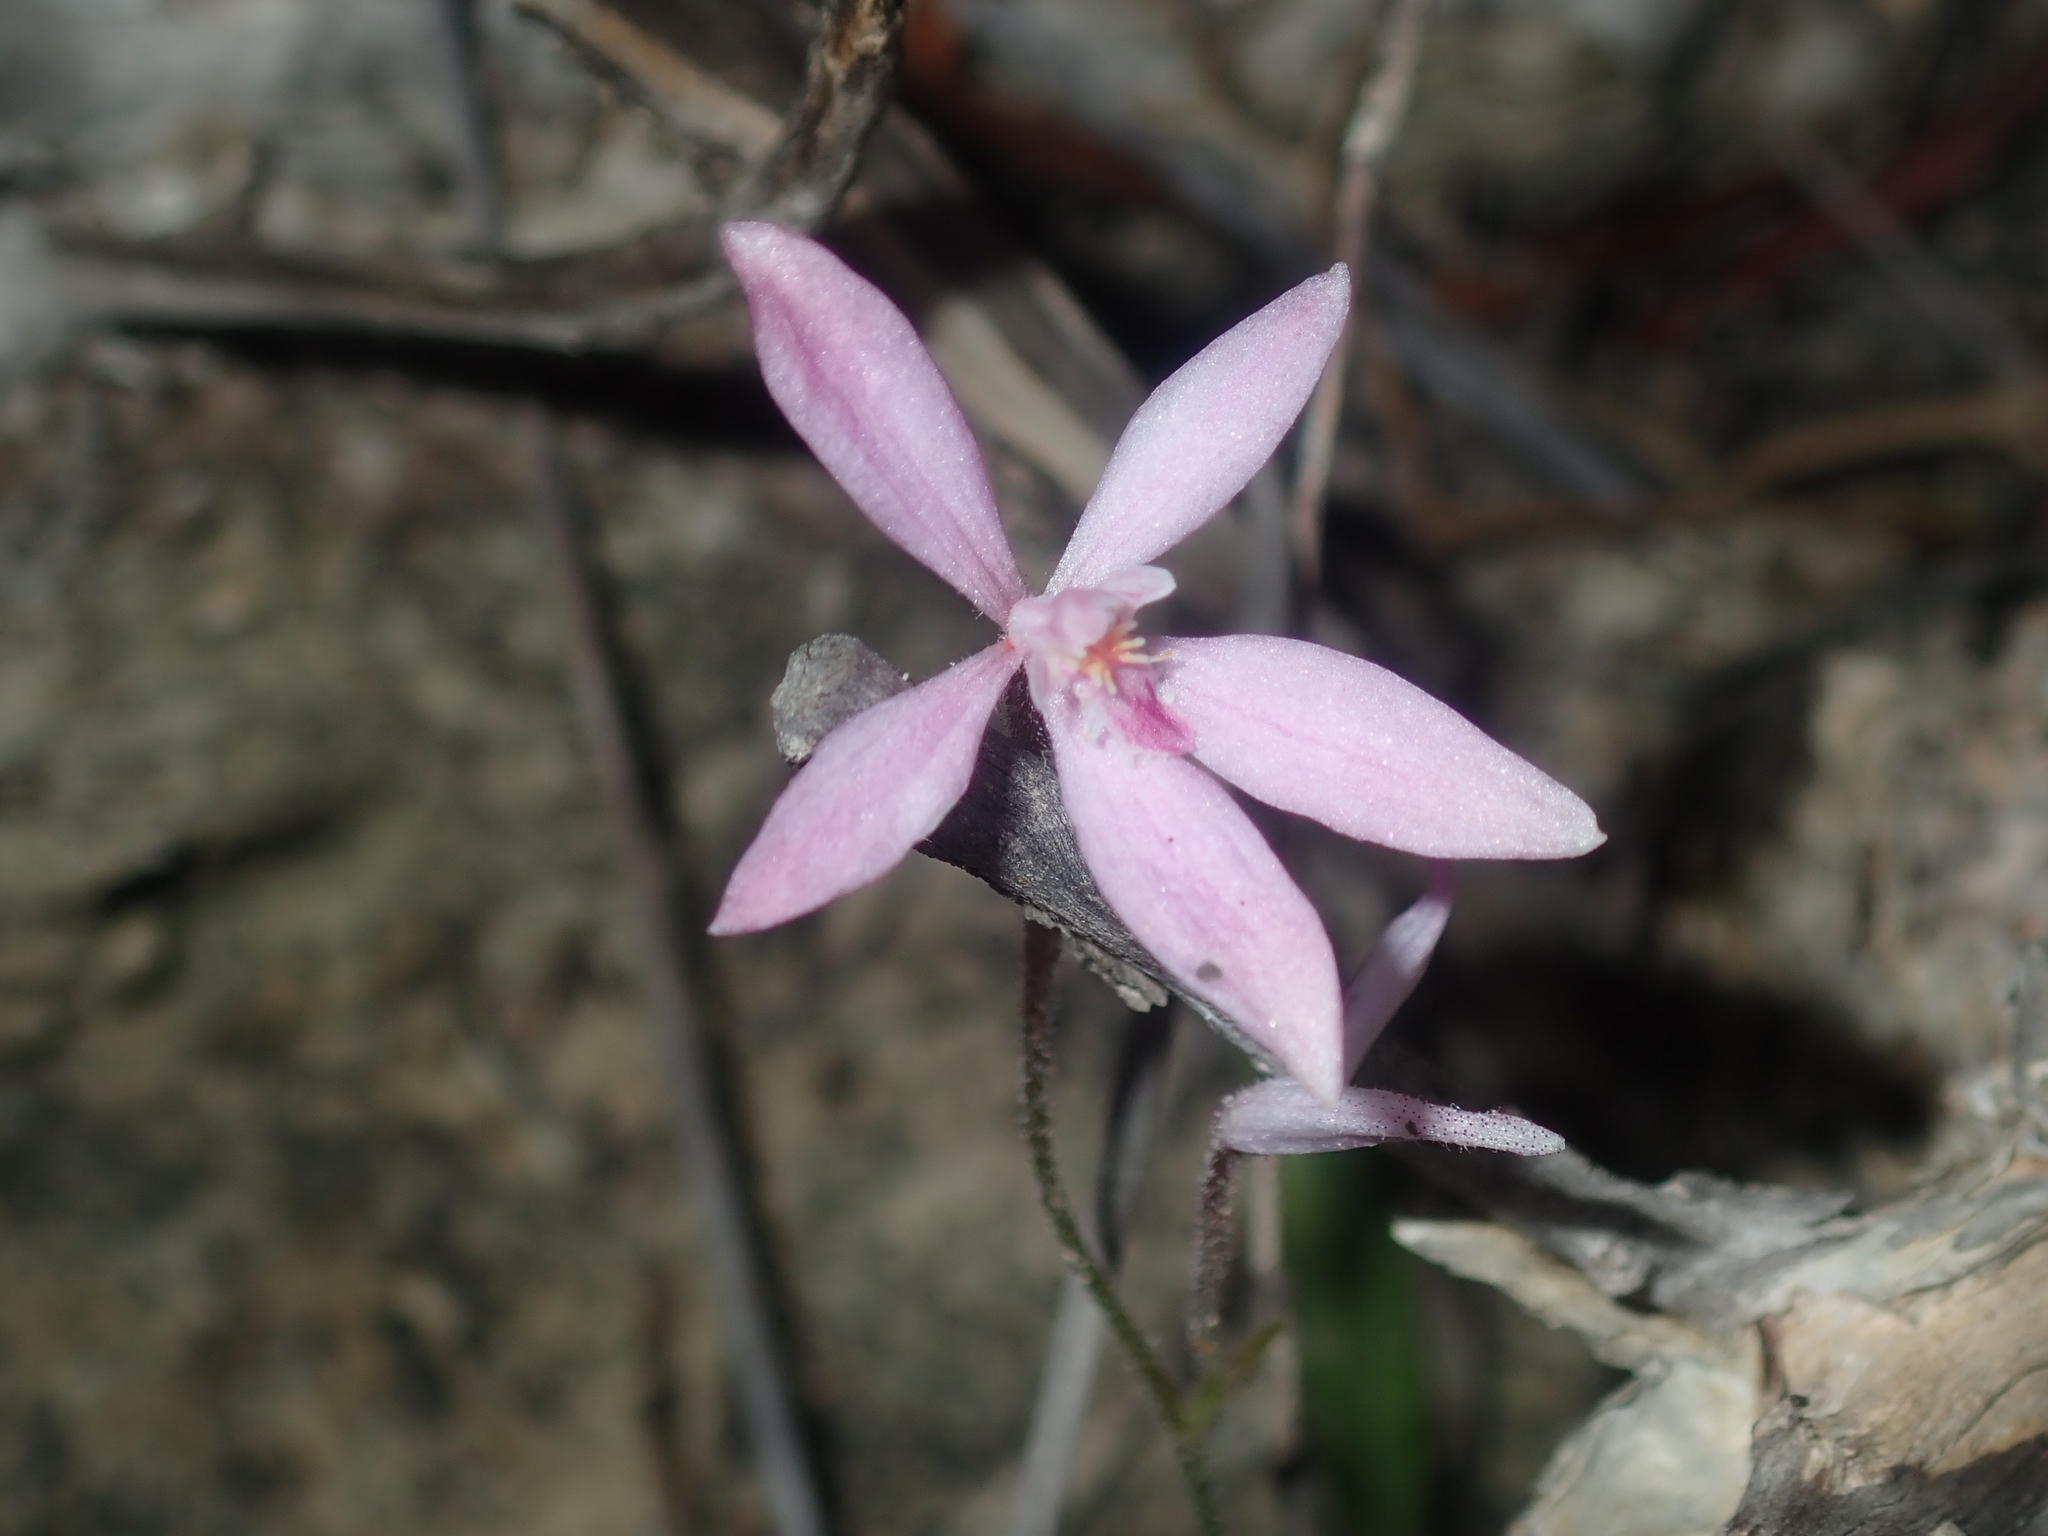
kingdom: Plantae
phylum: Tracheophyta
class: Liliopsida
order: Asparagales
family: Orchidaceae
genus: Caladenia
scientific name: Caladenia reptans
